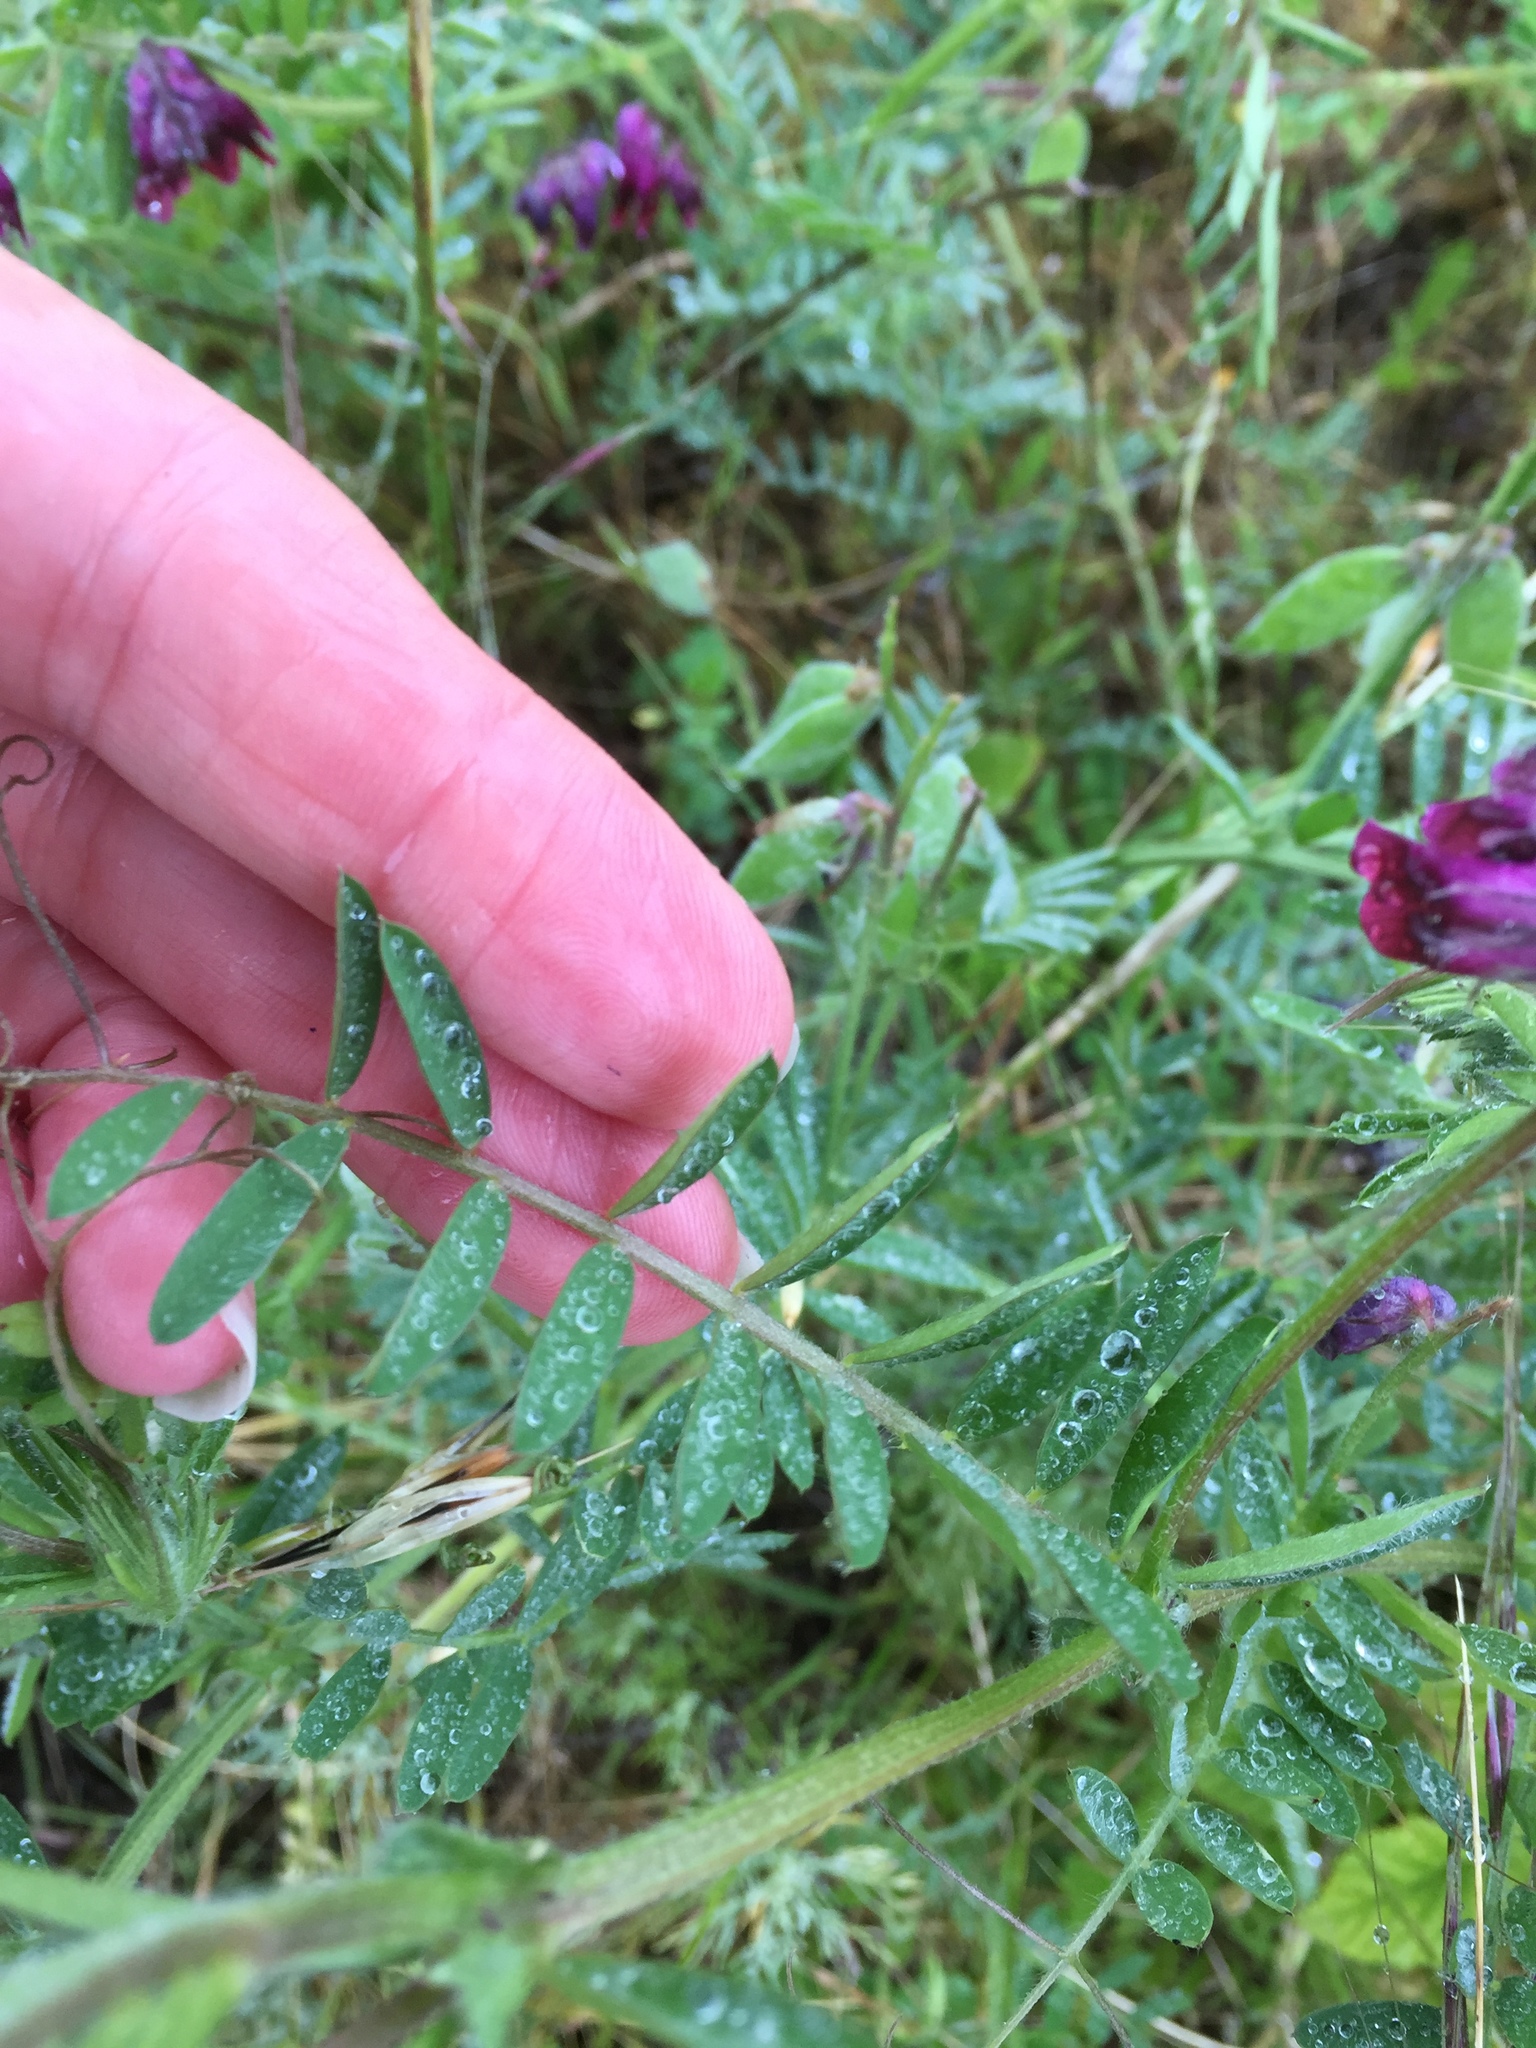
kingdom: Plantae
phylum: Tracheophyta
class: Magnoliopsida
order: Fabales
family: Fabaceae
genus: Vicia
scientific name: Vicia villosa
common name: Fodder vetch
